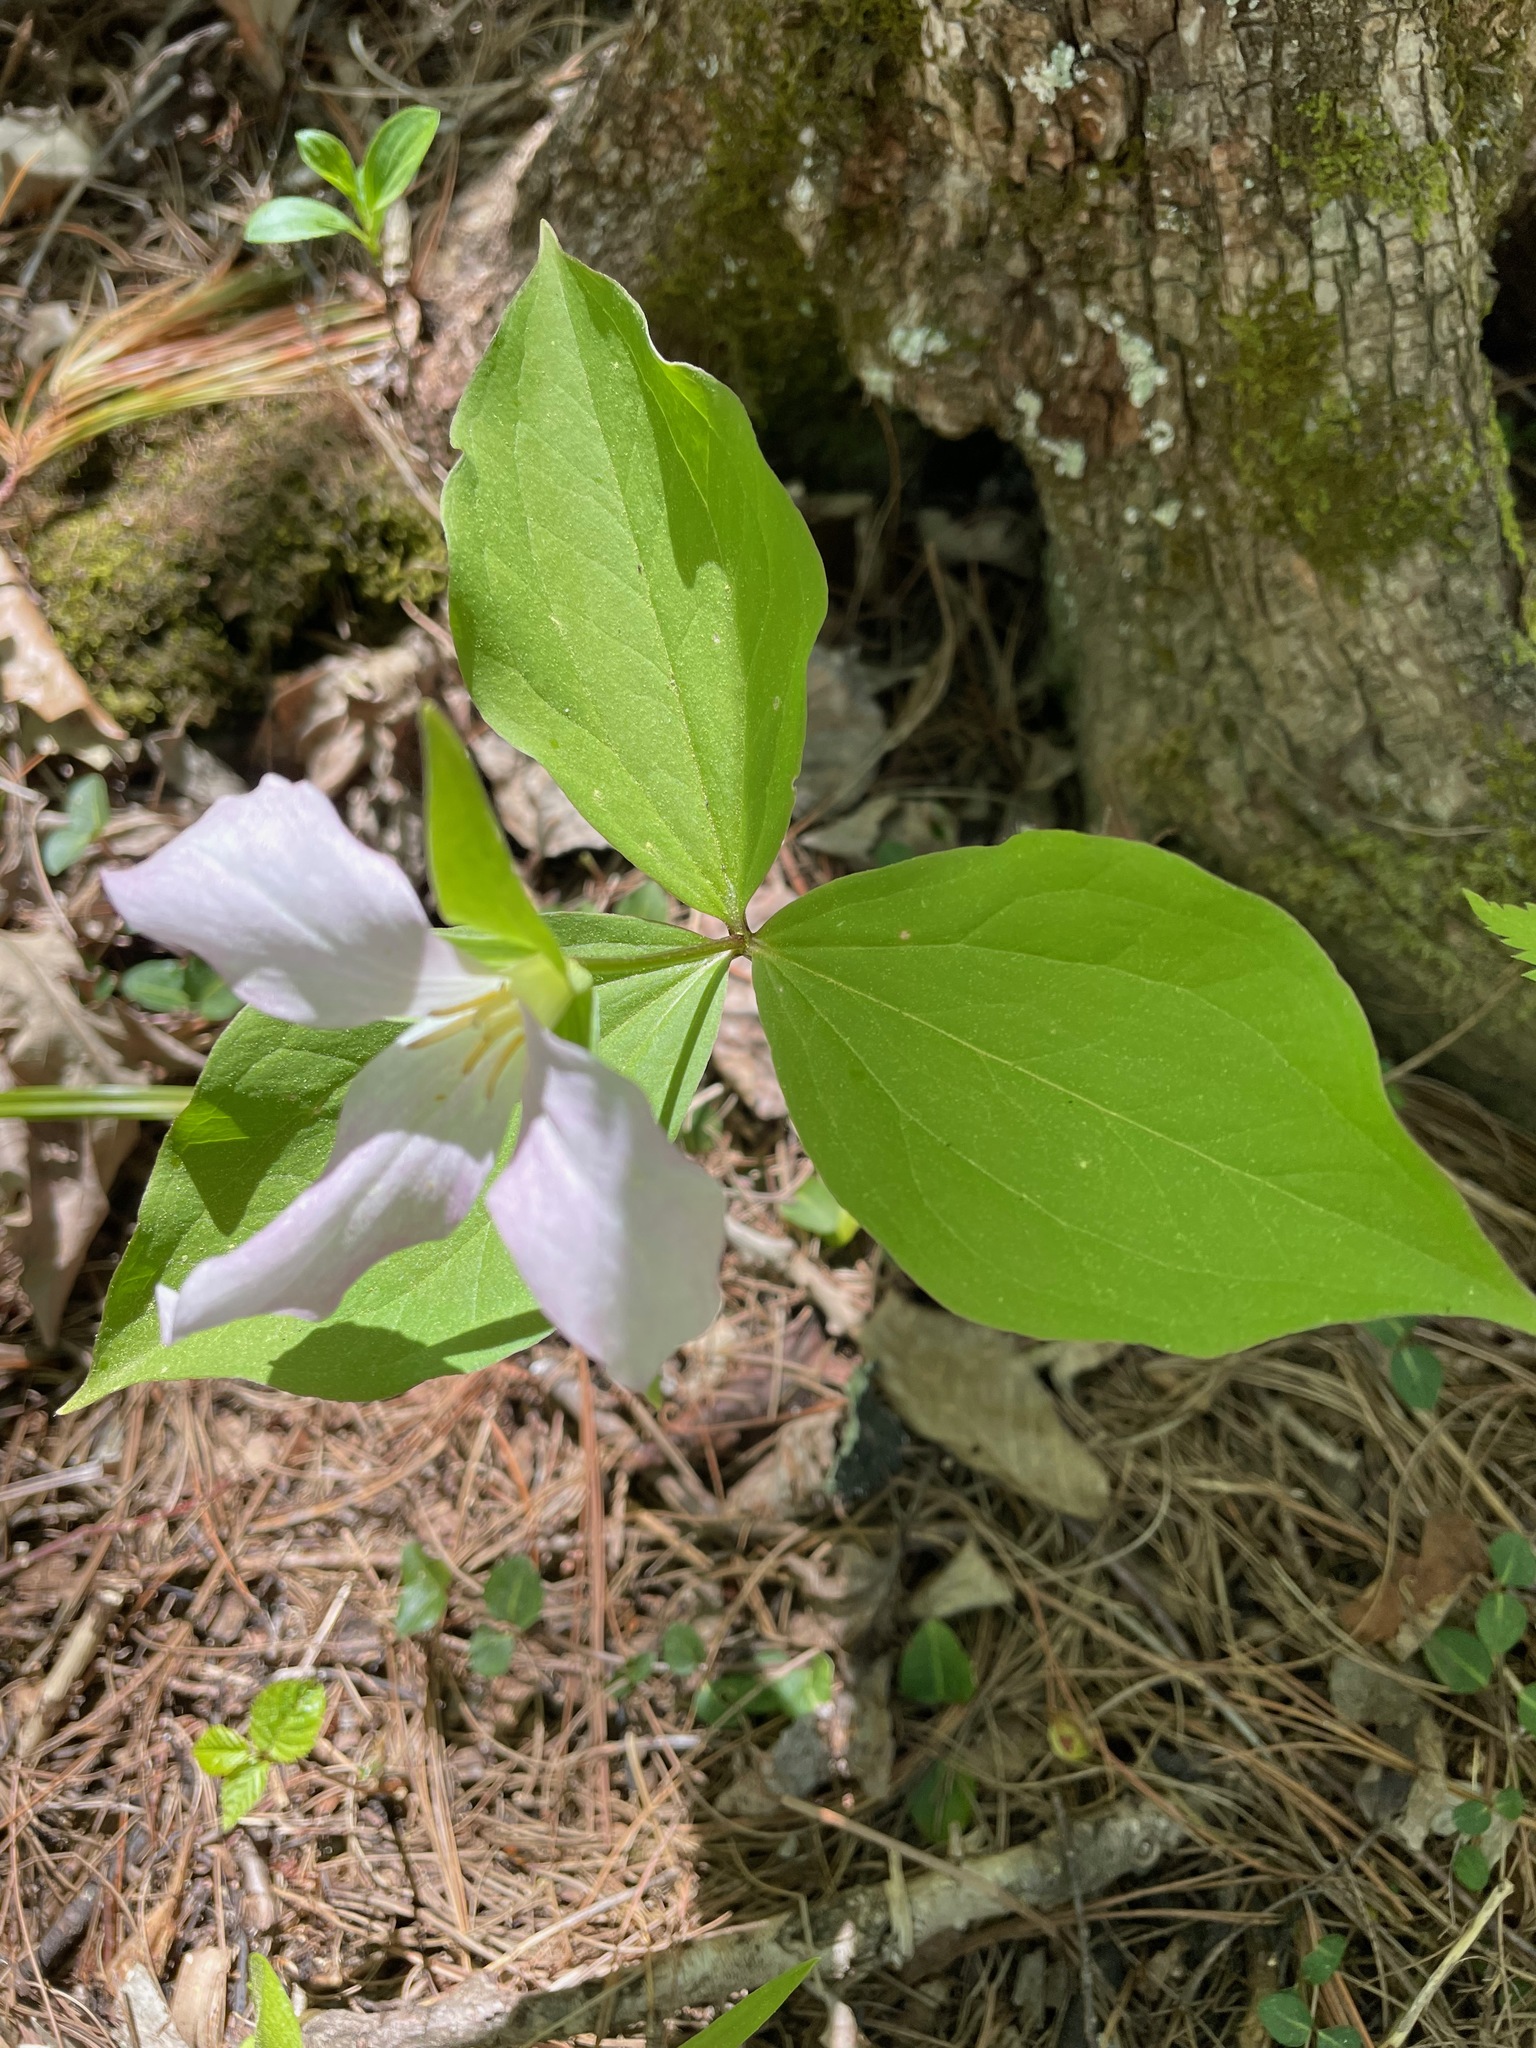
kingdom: Plantae
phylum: Tracheophyta
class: Liliopsida
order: Liliales
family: Melanthiaceae
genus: Trillium
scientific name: Trillium grandiflorum
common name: Great white trillium
